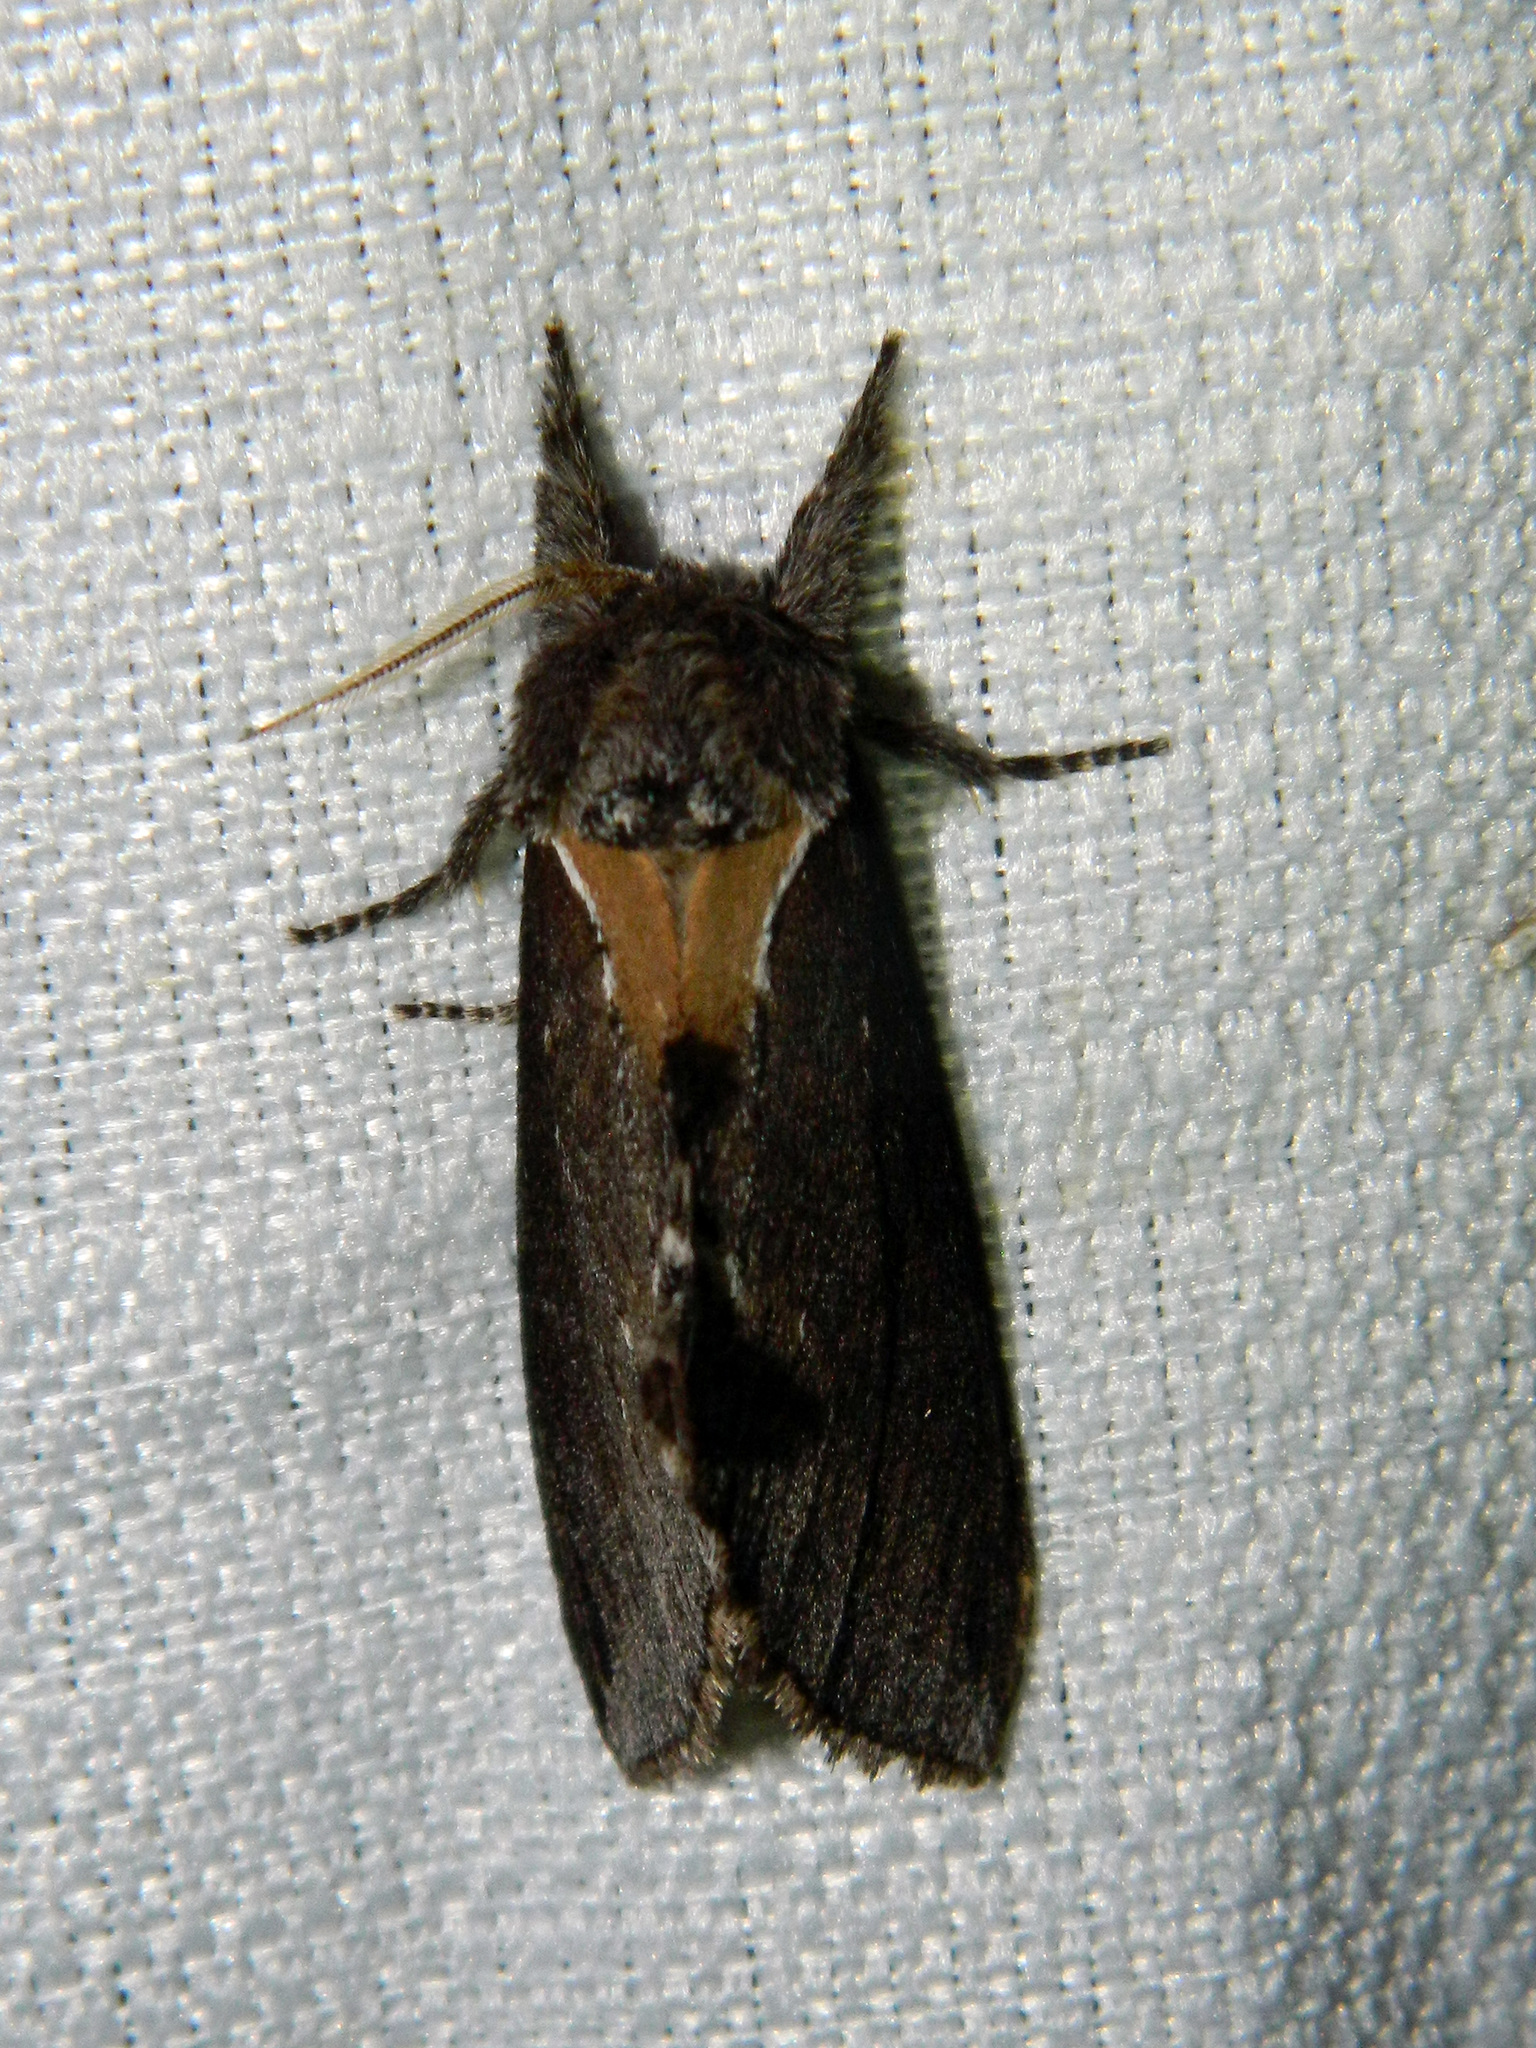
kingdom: Animalia
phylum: Arthropoda
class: Insecta
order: Lepidoptera
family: Notodontidae
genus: Pheosidea
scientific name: Pheosidea elegans
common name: Elegant prominent
